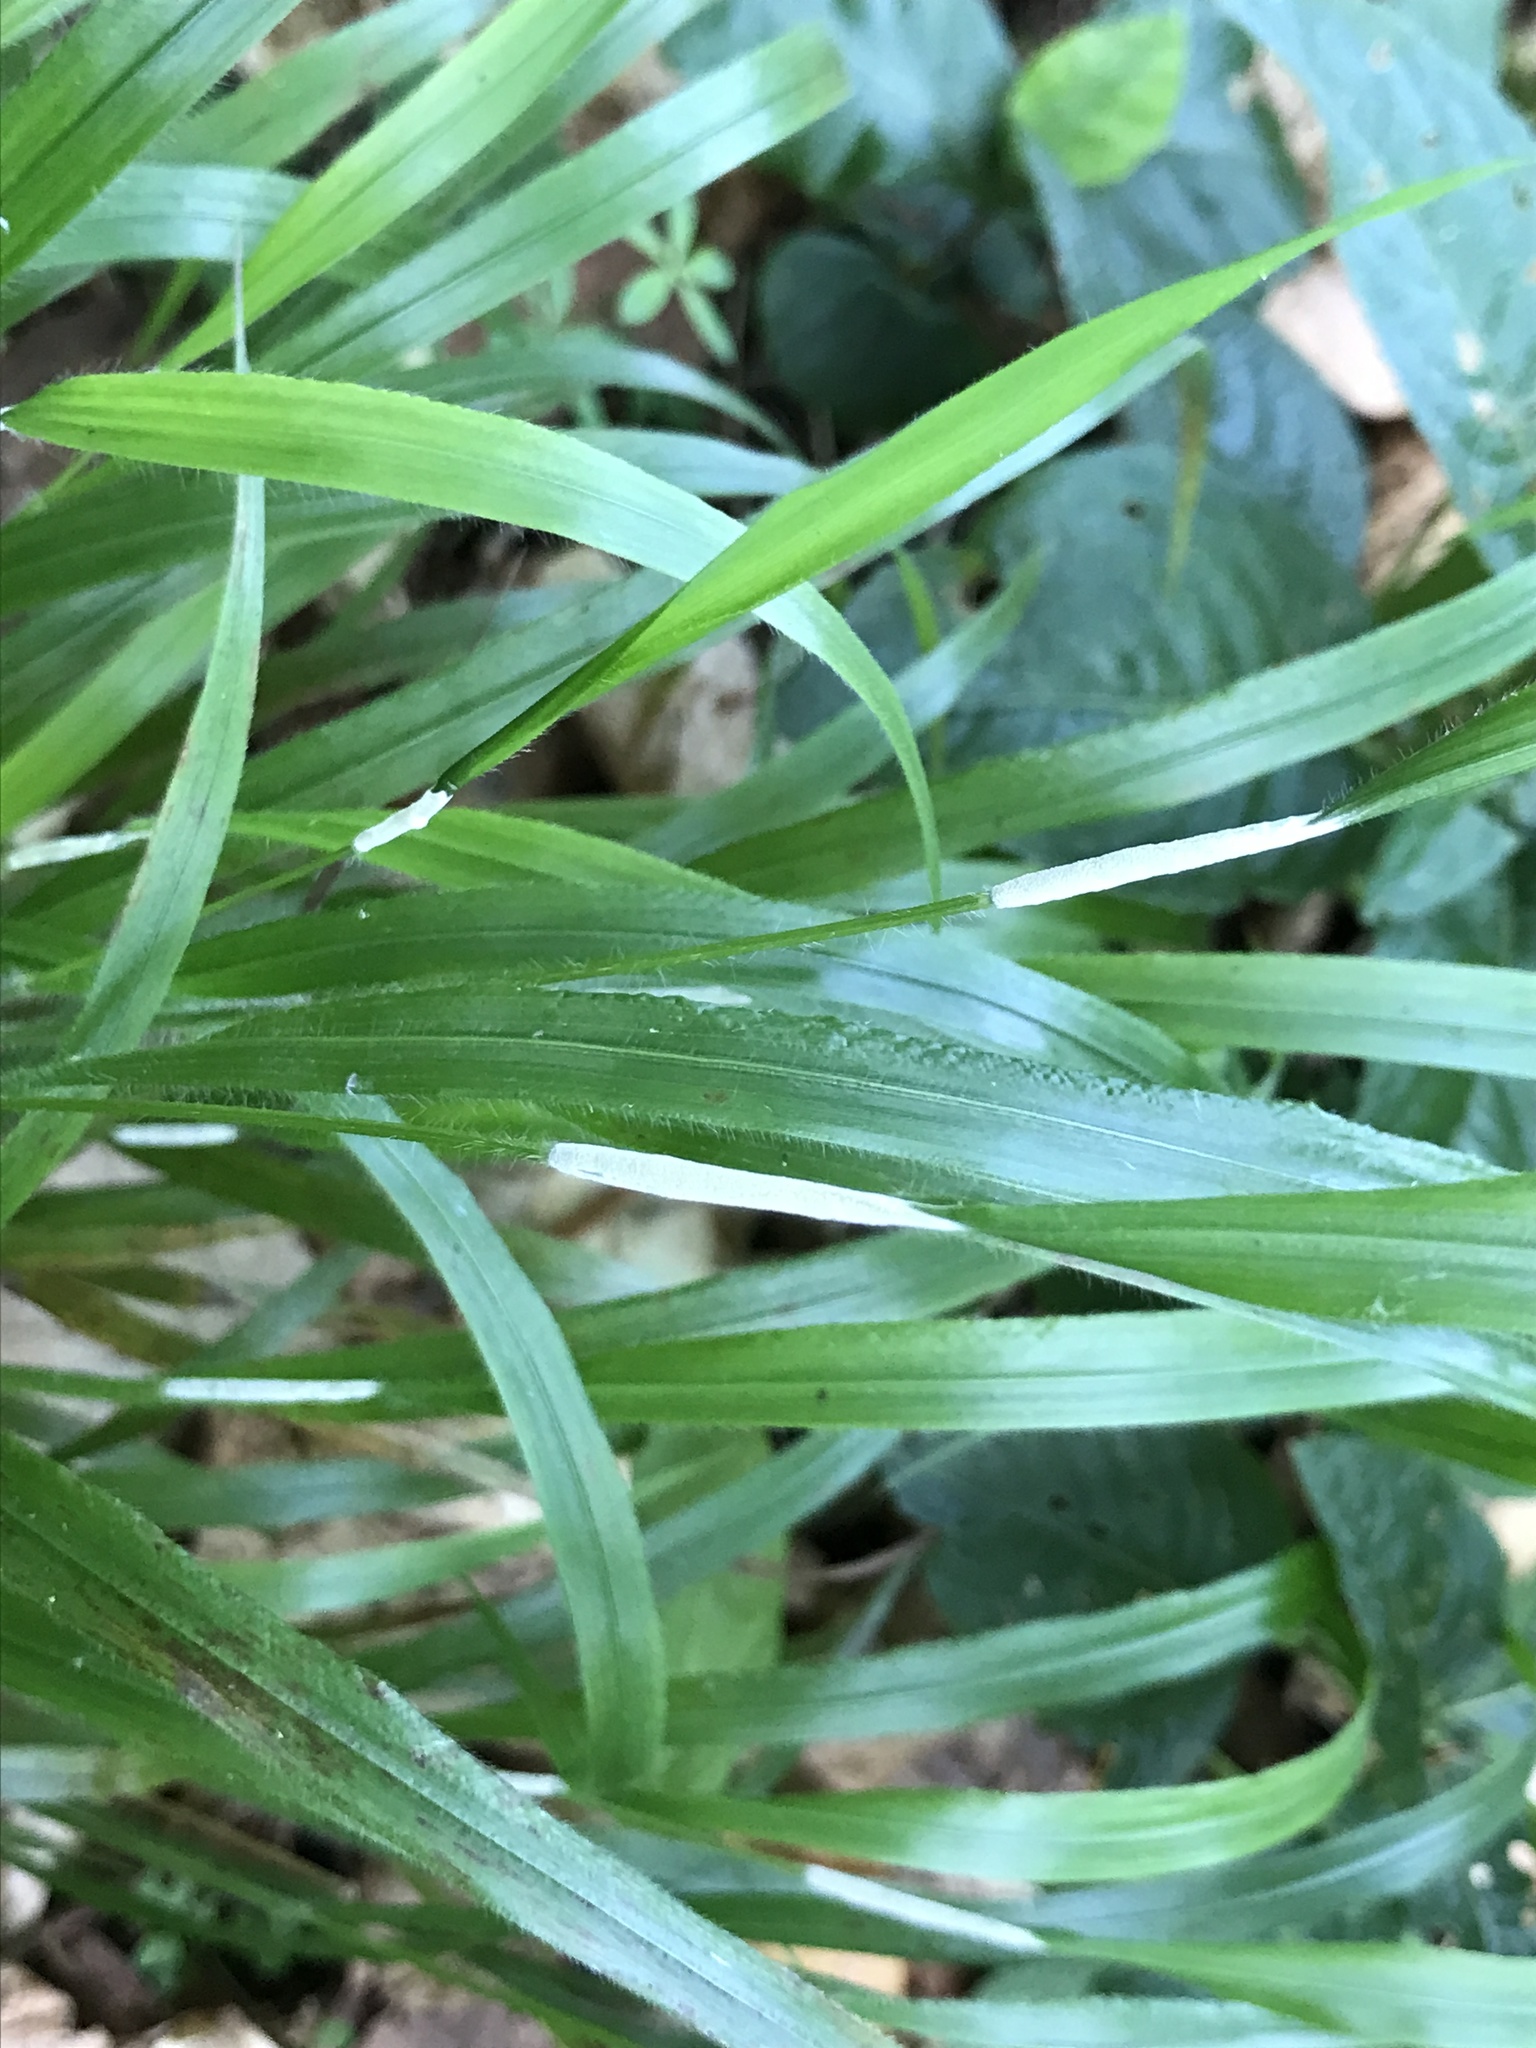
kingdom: Plantae
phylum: Tracheophyta
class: Liliopsida
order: Poales
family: Poaceae
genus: Brachypodium
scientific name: Brachypodium sylvaticum
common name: False-brome
